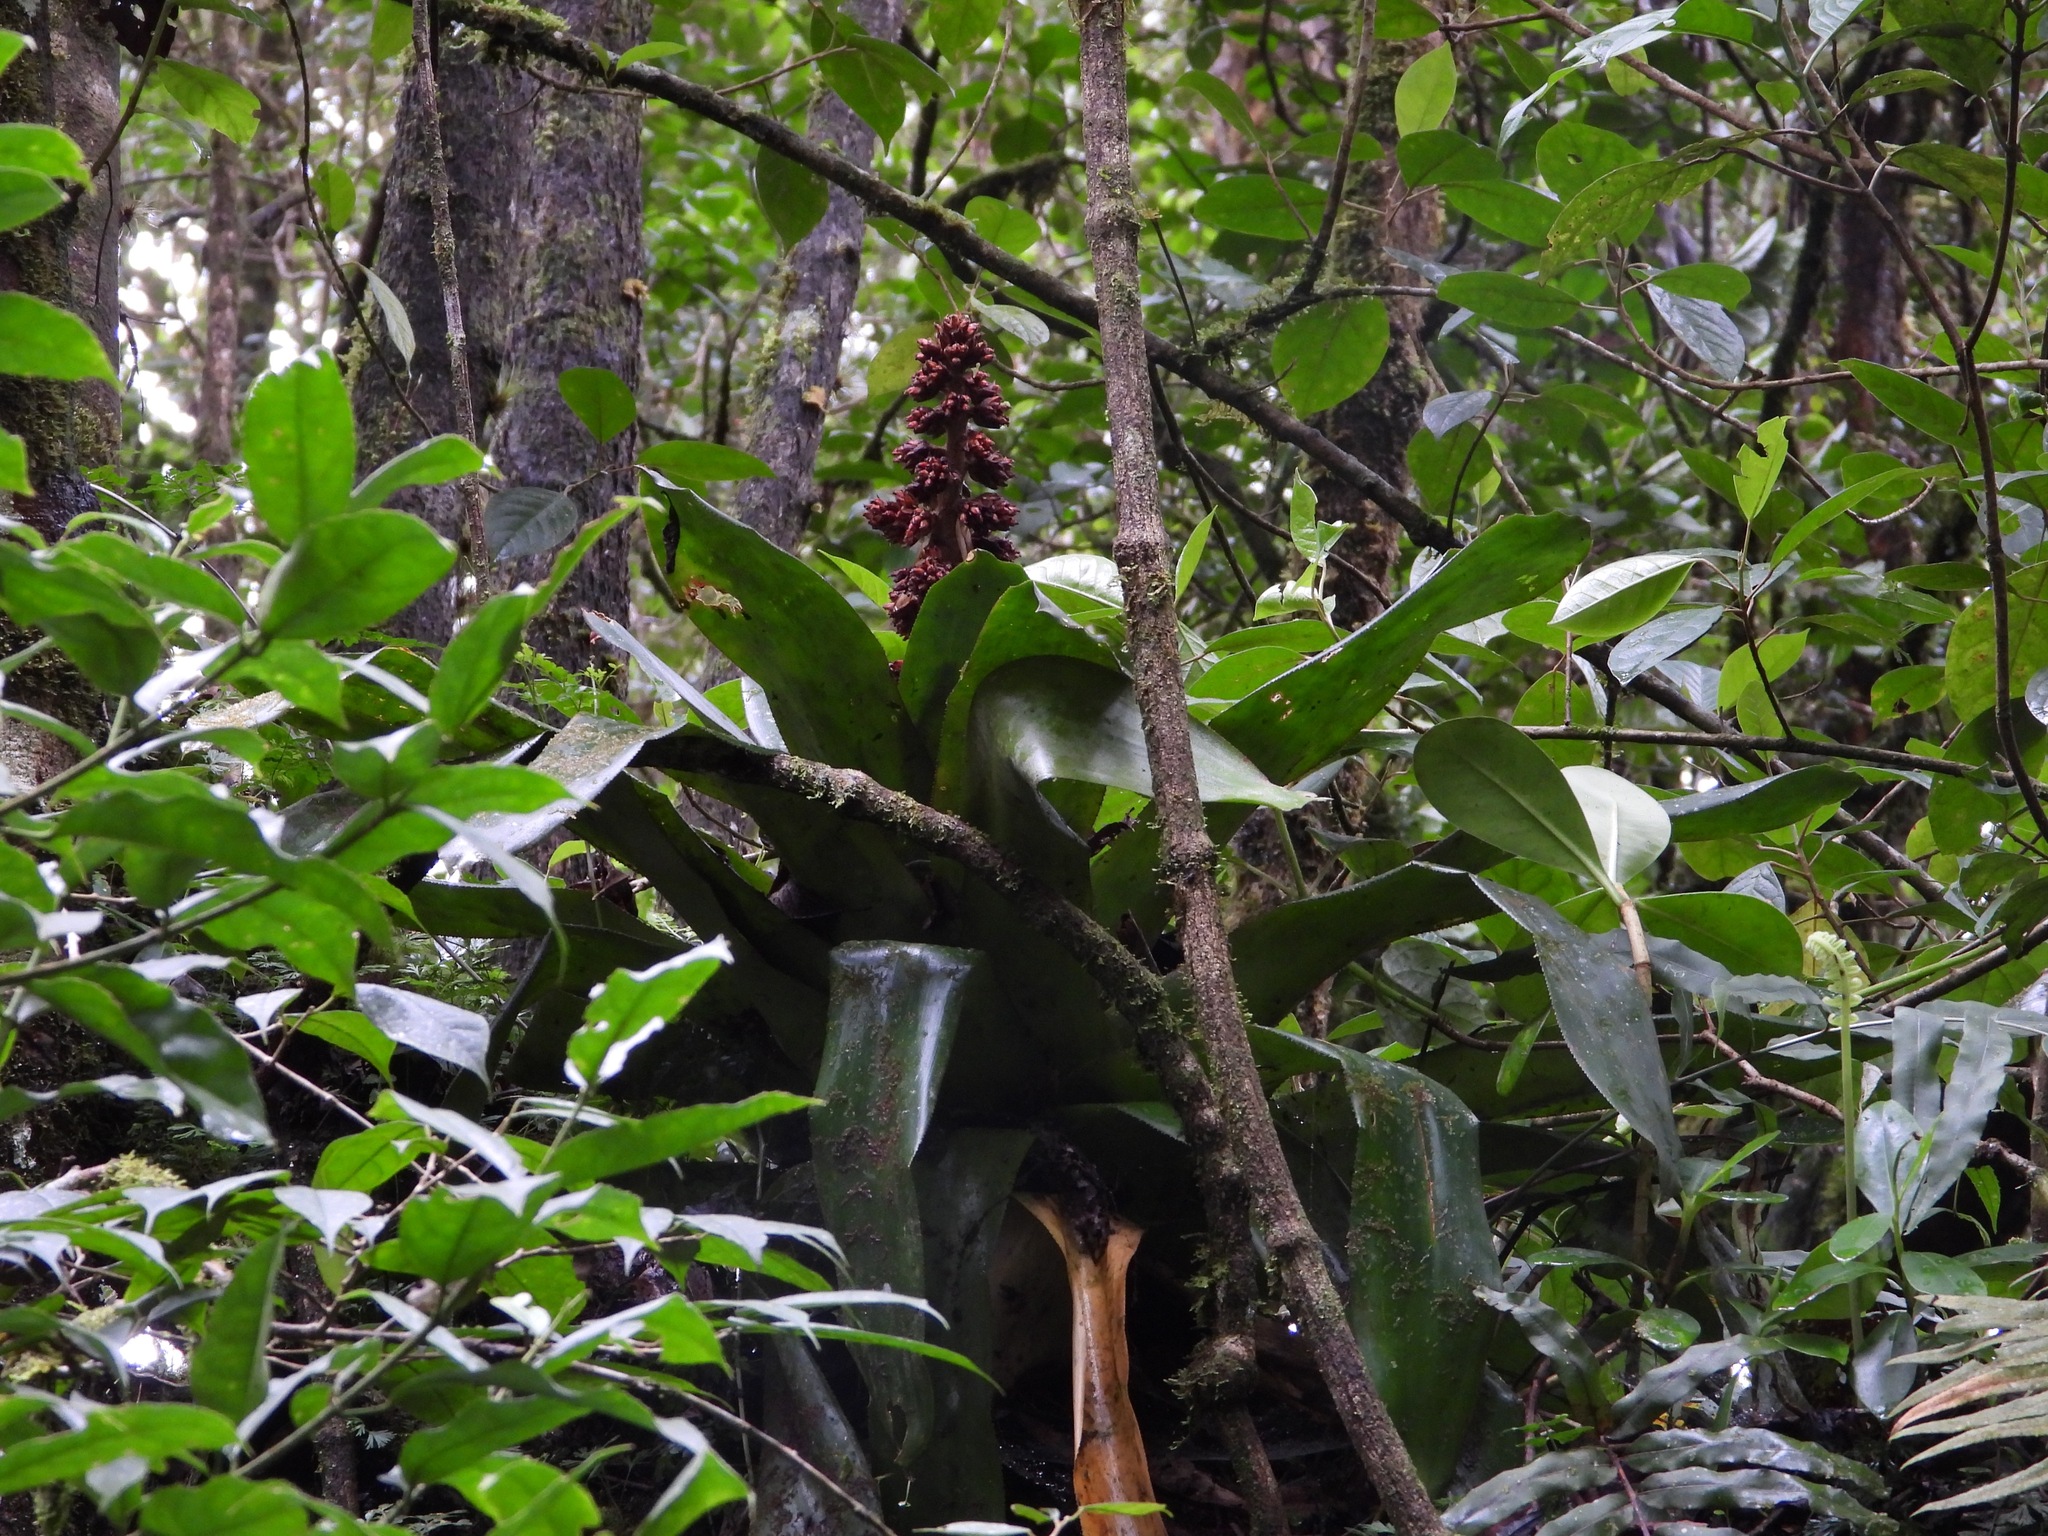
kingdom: Plantae
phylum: Tracheophyta
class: Liliopsida
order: Poales
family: Bromeliaceae
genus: Hohenbergiopsis
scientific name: Hohenbergiopsis guatemalensis
